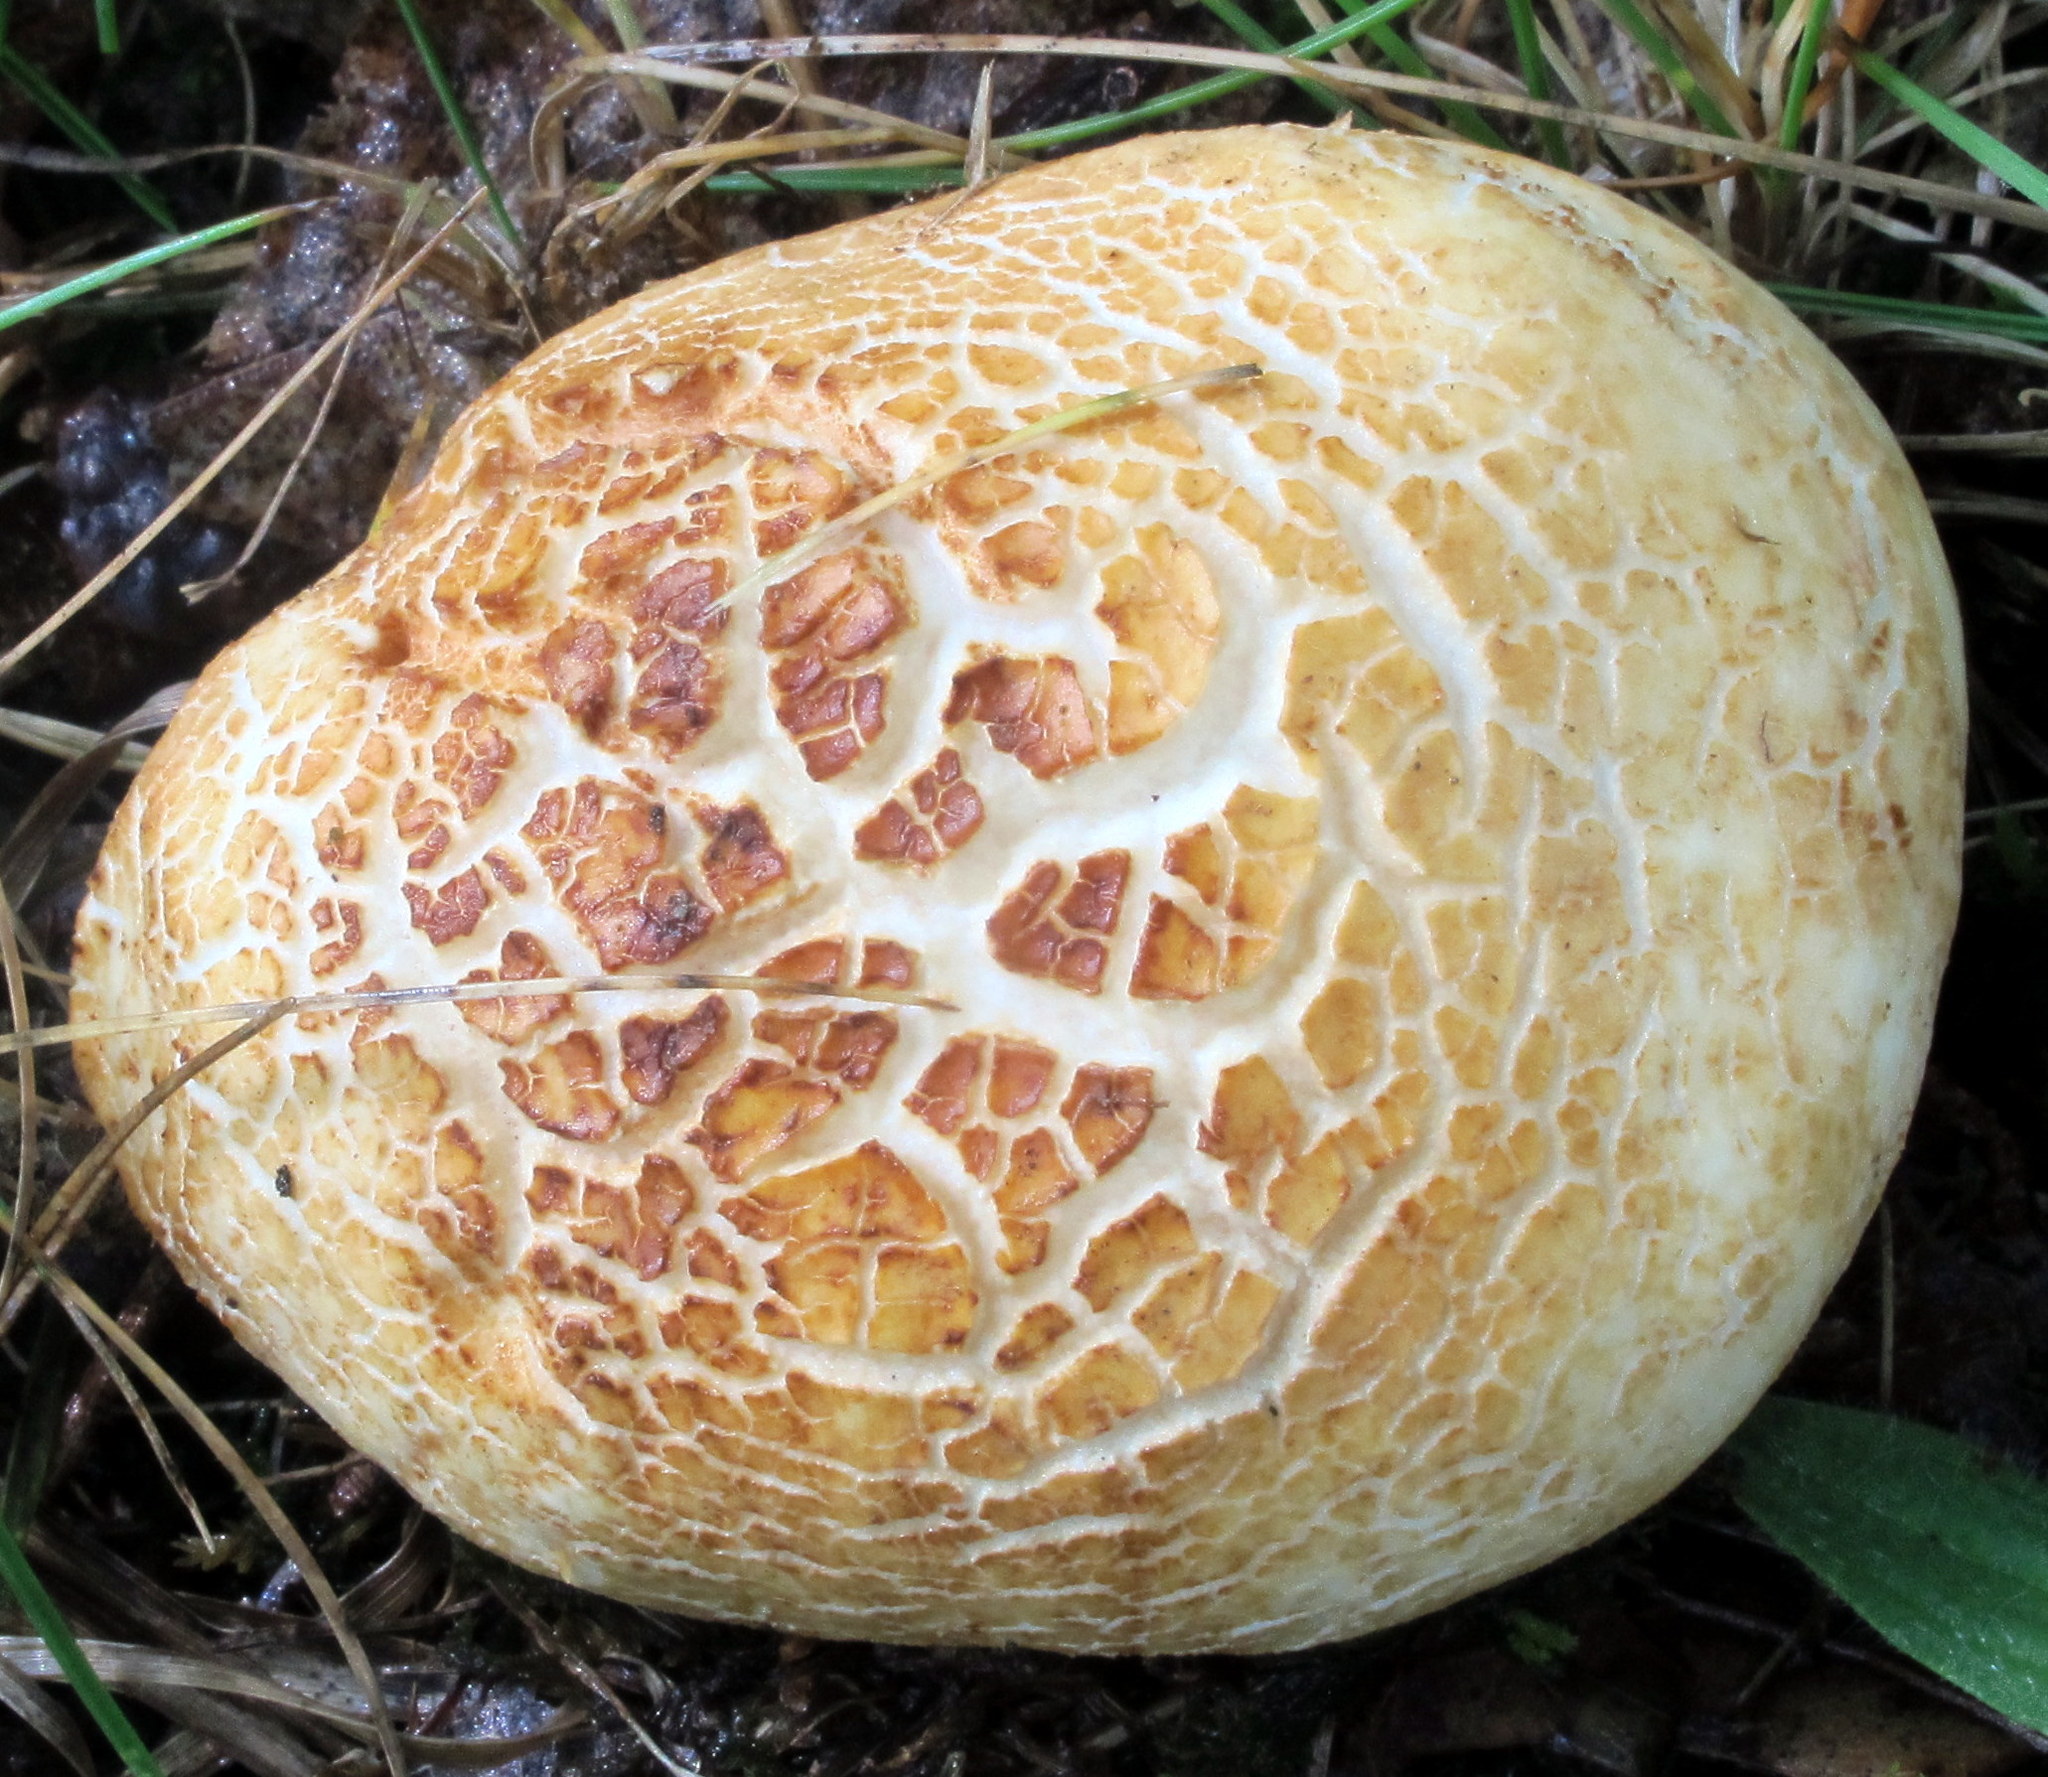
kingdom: Fungi
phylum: Basidiomycota
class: Agaricomycetes
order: Russulales
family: Russulaceae
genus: Russula
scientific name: Russula ballouii
